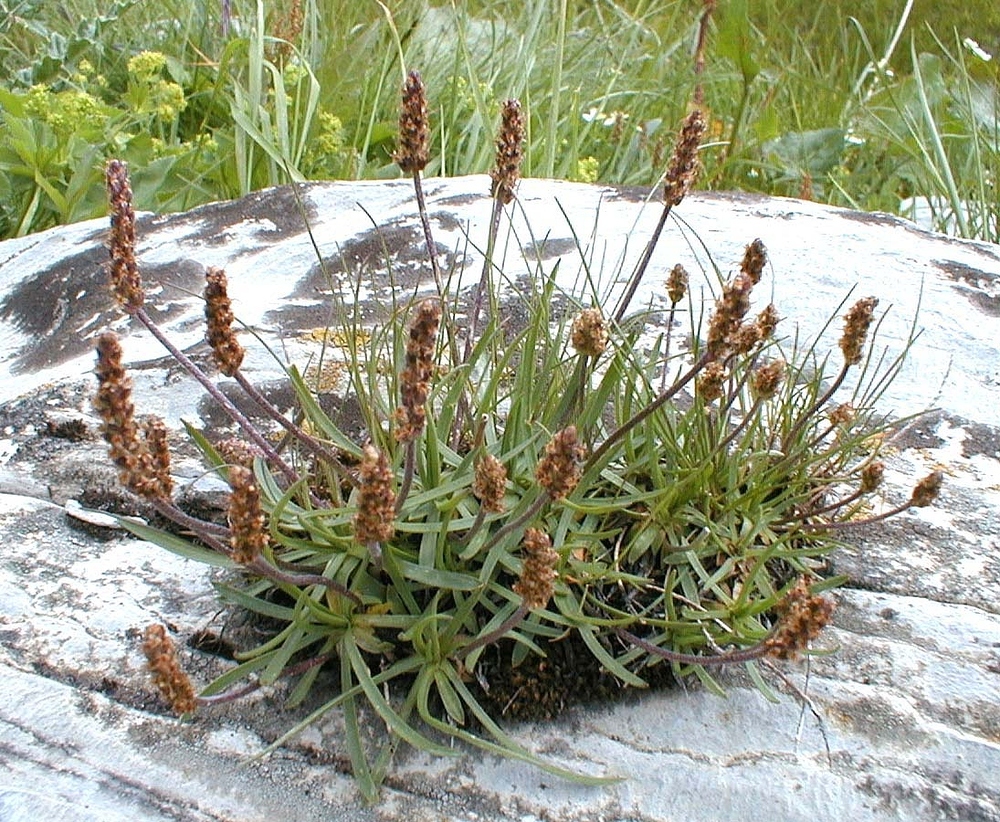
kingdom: Plantae
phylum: Tracheophyta
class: Magnoliopsida
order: Lamiales
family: Plantaginaceae
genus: Plantago
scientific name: Plantago maritima
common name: Sea plantain
